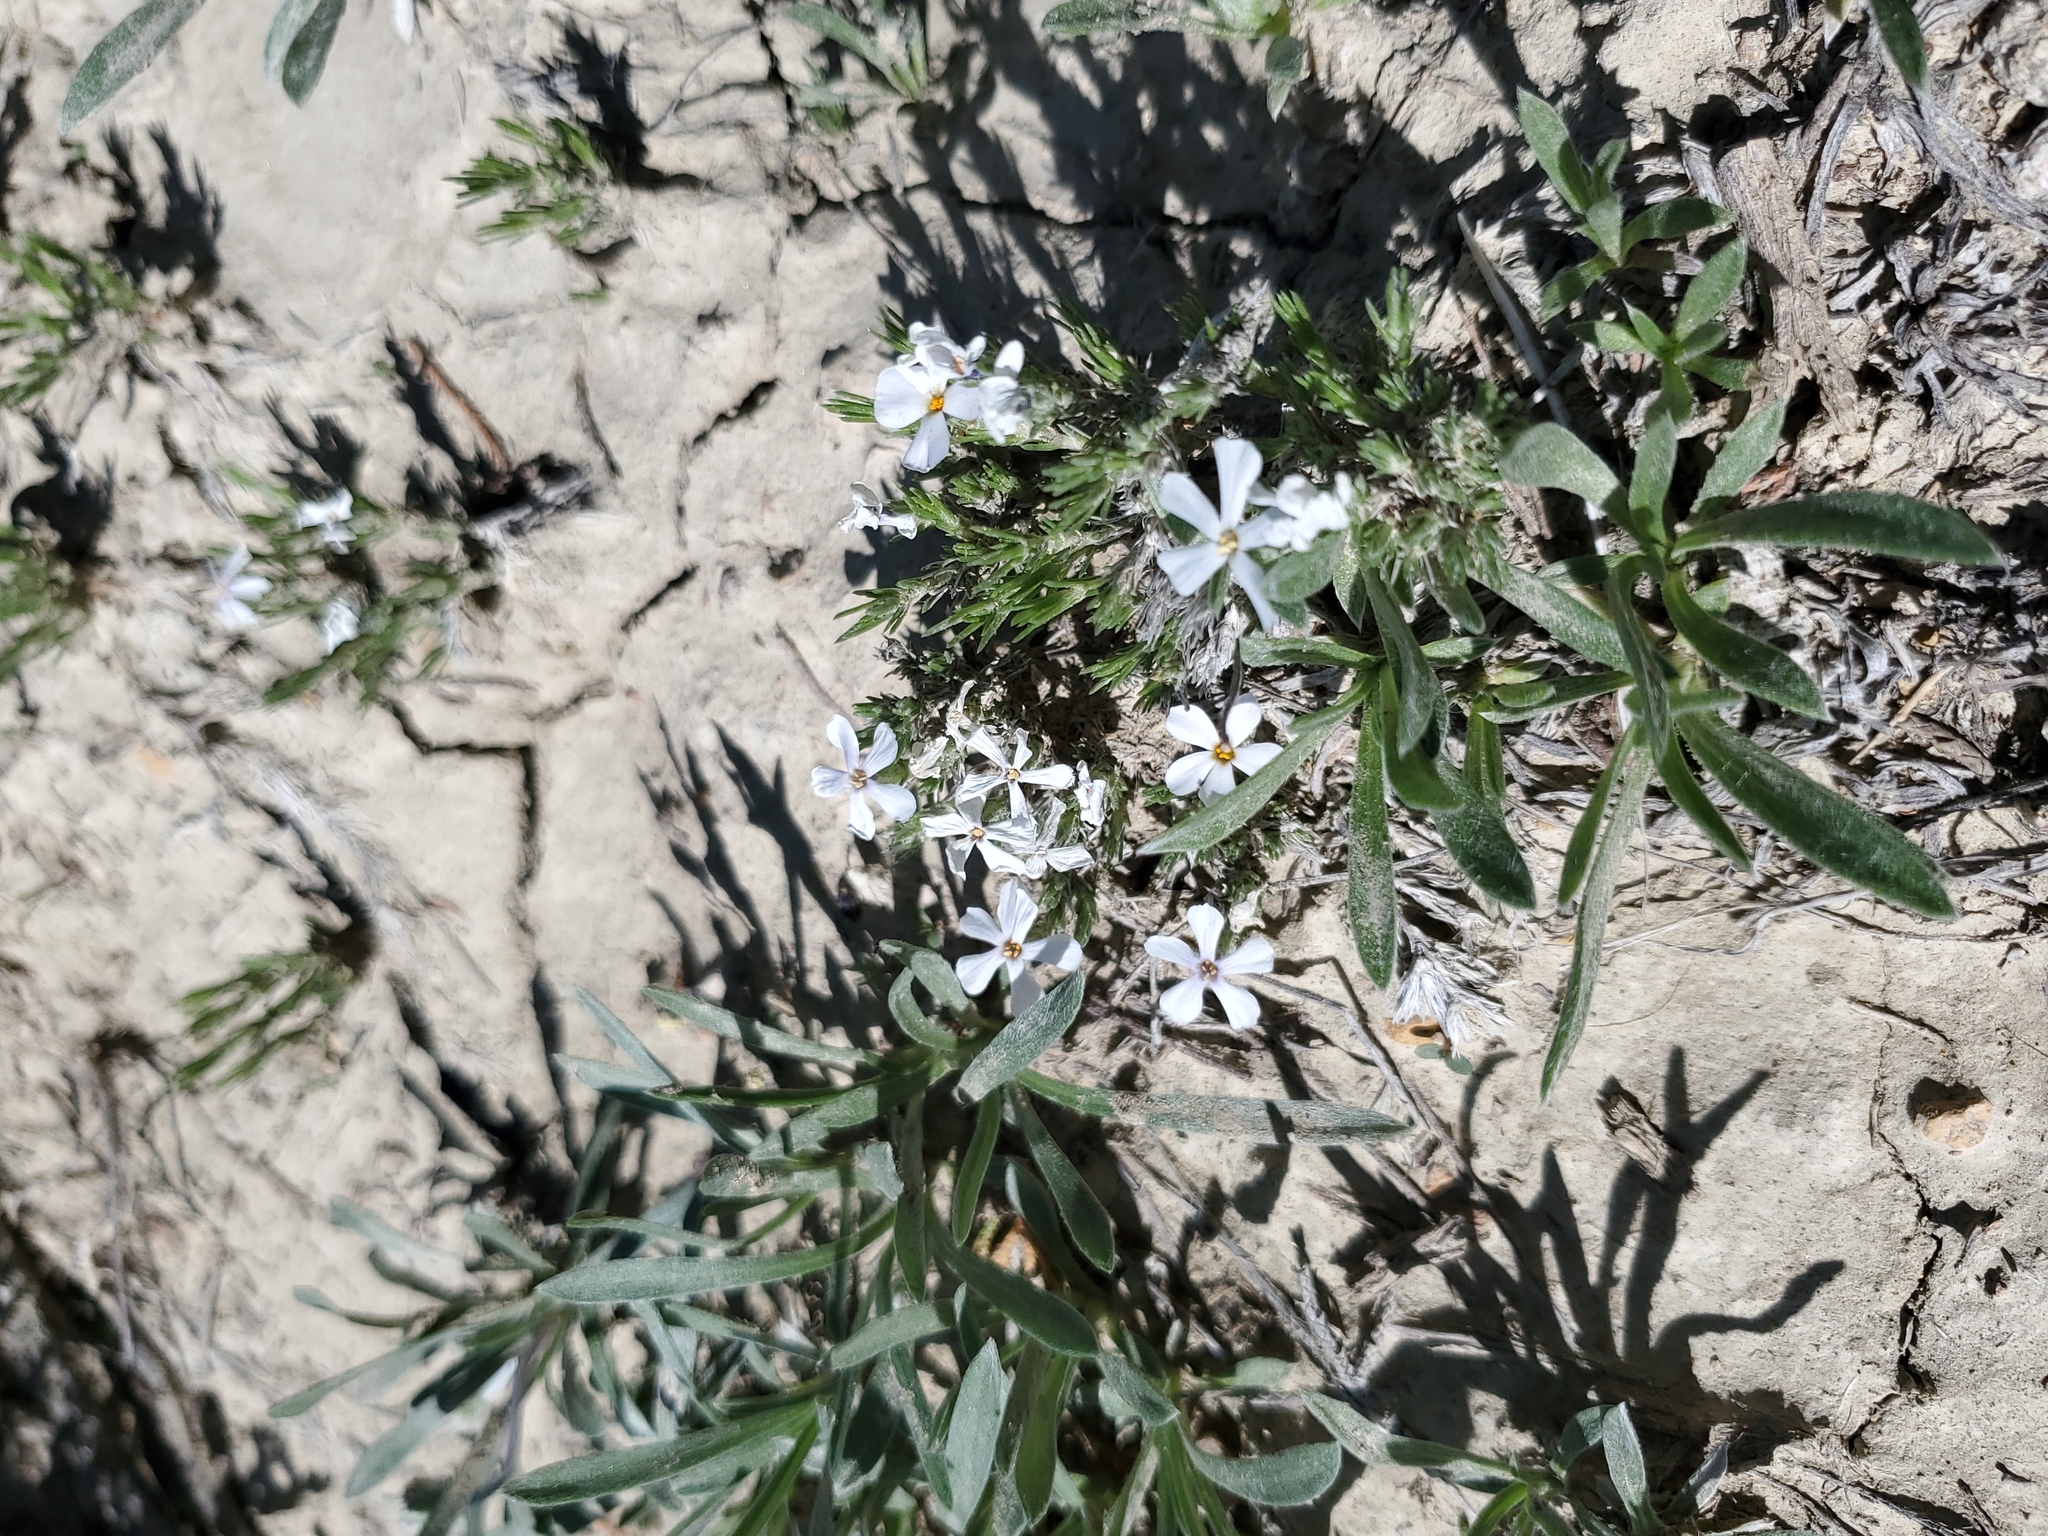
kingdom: Plantae
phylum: Tracheophyta
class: Magnoliopsida
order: Ericales
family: Polemoniaceae
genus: Phlox
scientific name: Phlox hoodii
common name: Moss phlox
